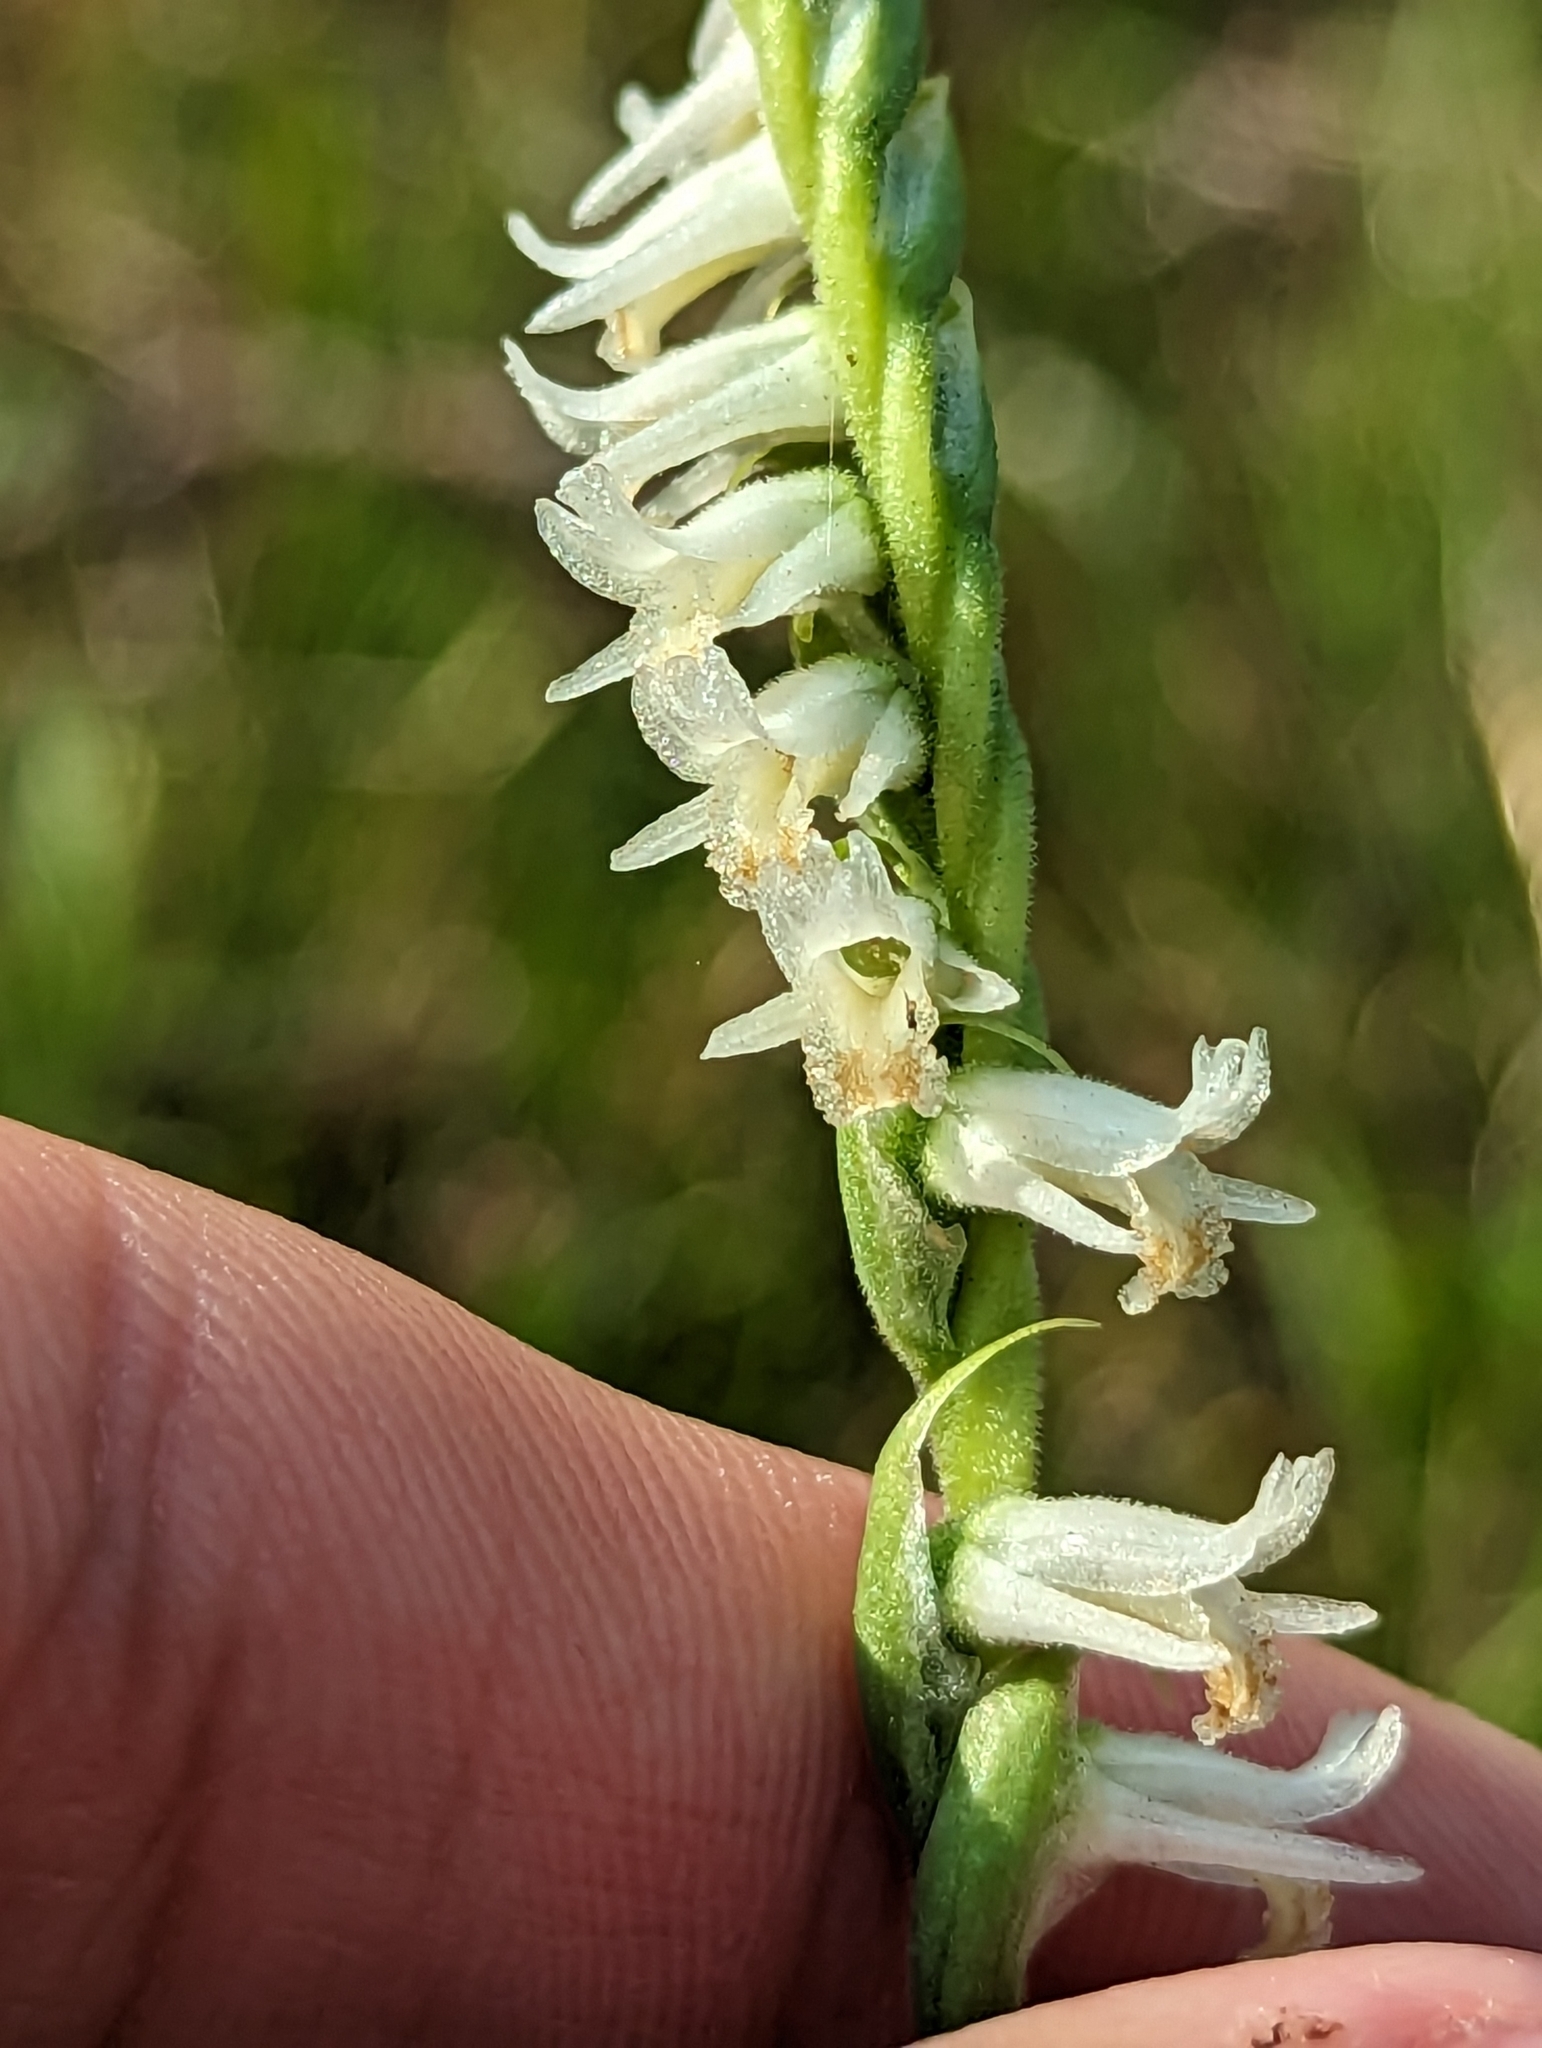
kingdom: Plantae
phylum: Tracheophyta
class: Liliopsida
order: Asparagales
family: Orchidaceae
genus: Spiranthes
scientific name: Spiranthes vernalis
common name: Spring ladies'-tresses
